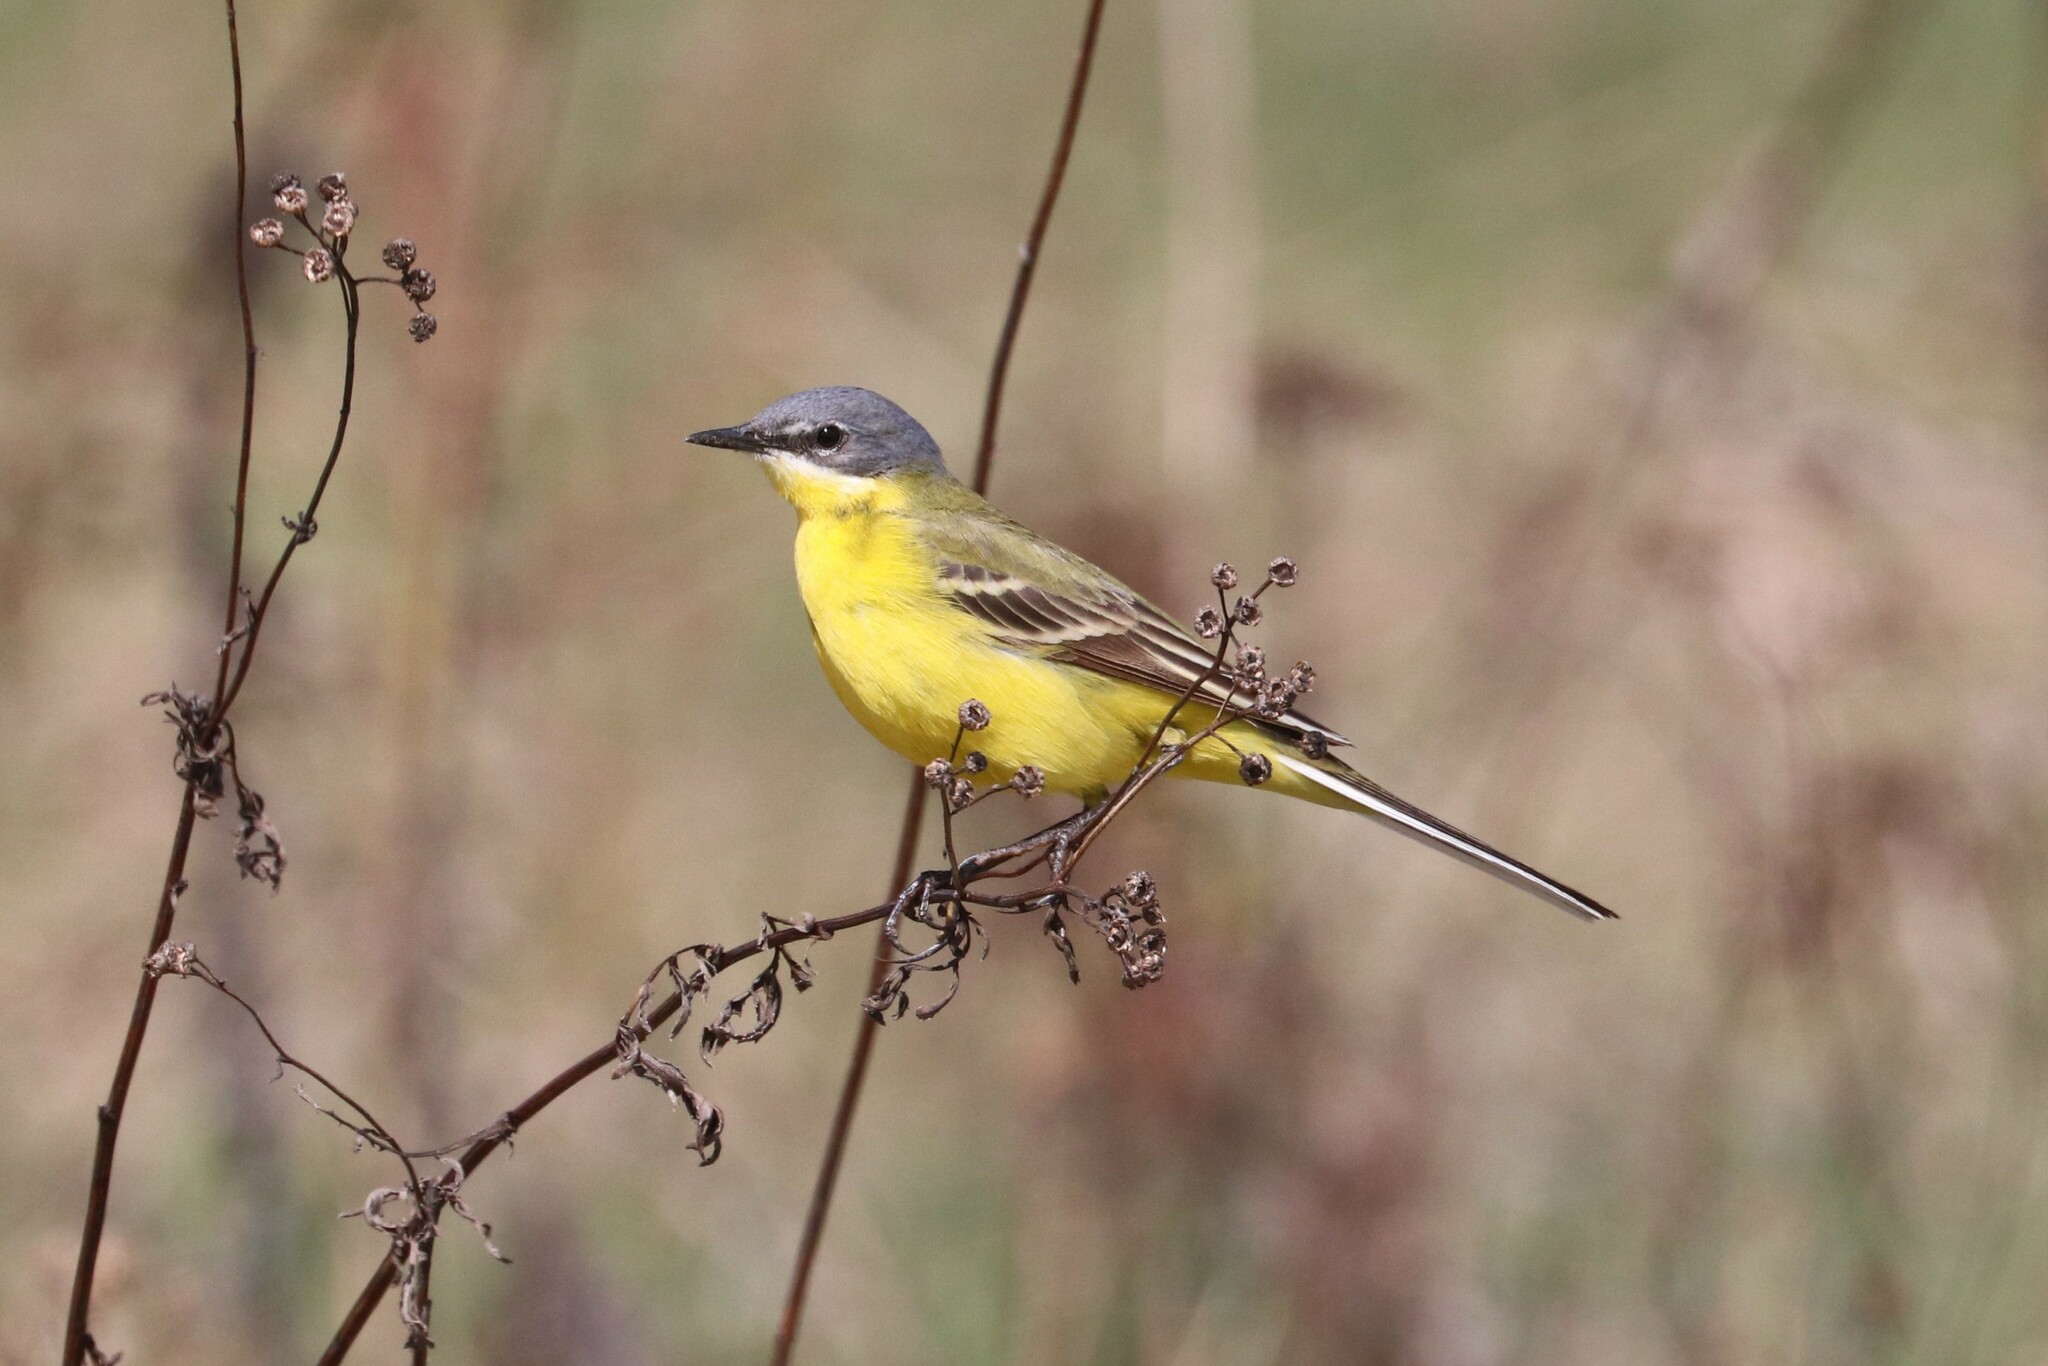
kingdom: Animalia
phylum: Chordata
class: Aves
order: Passeriformes
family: Motacillidae
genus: Motacilla
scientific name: Motacilla flava
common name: Western yellow wagtail
